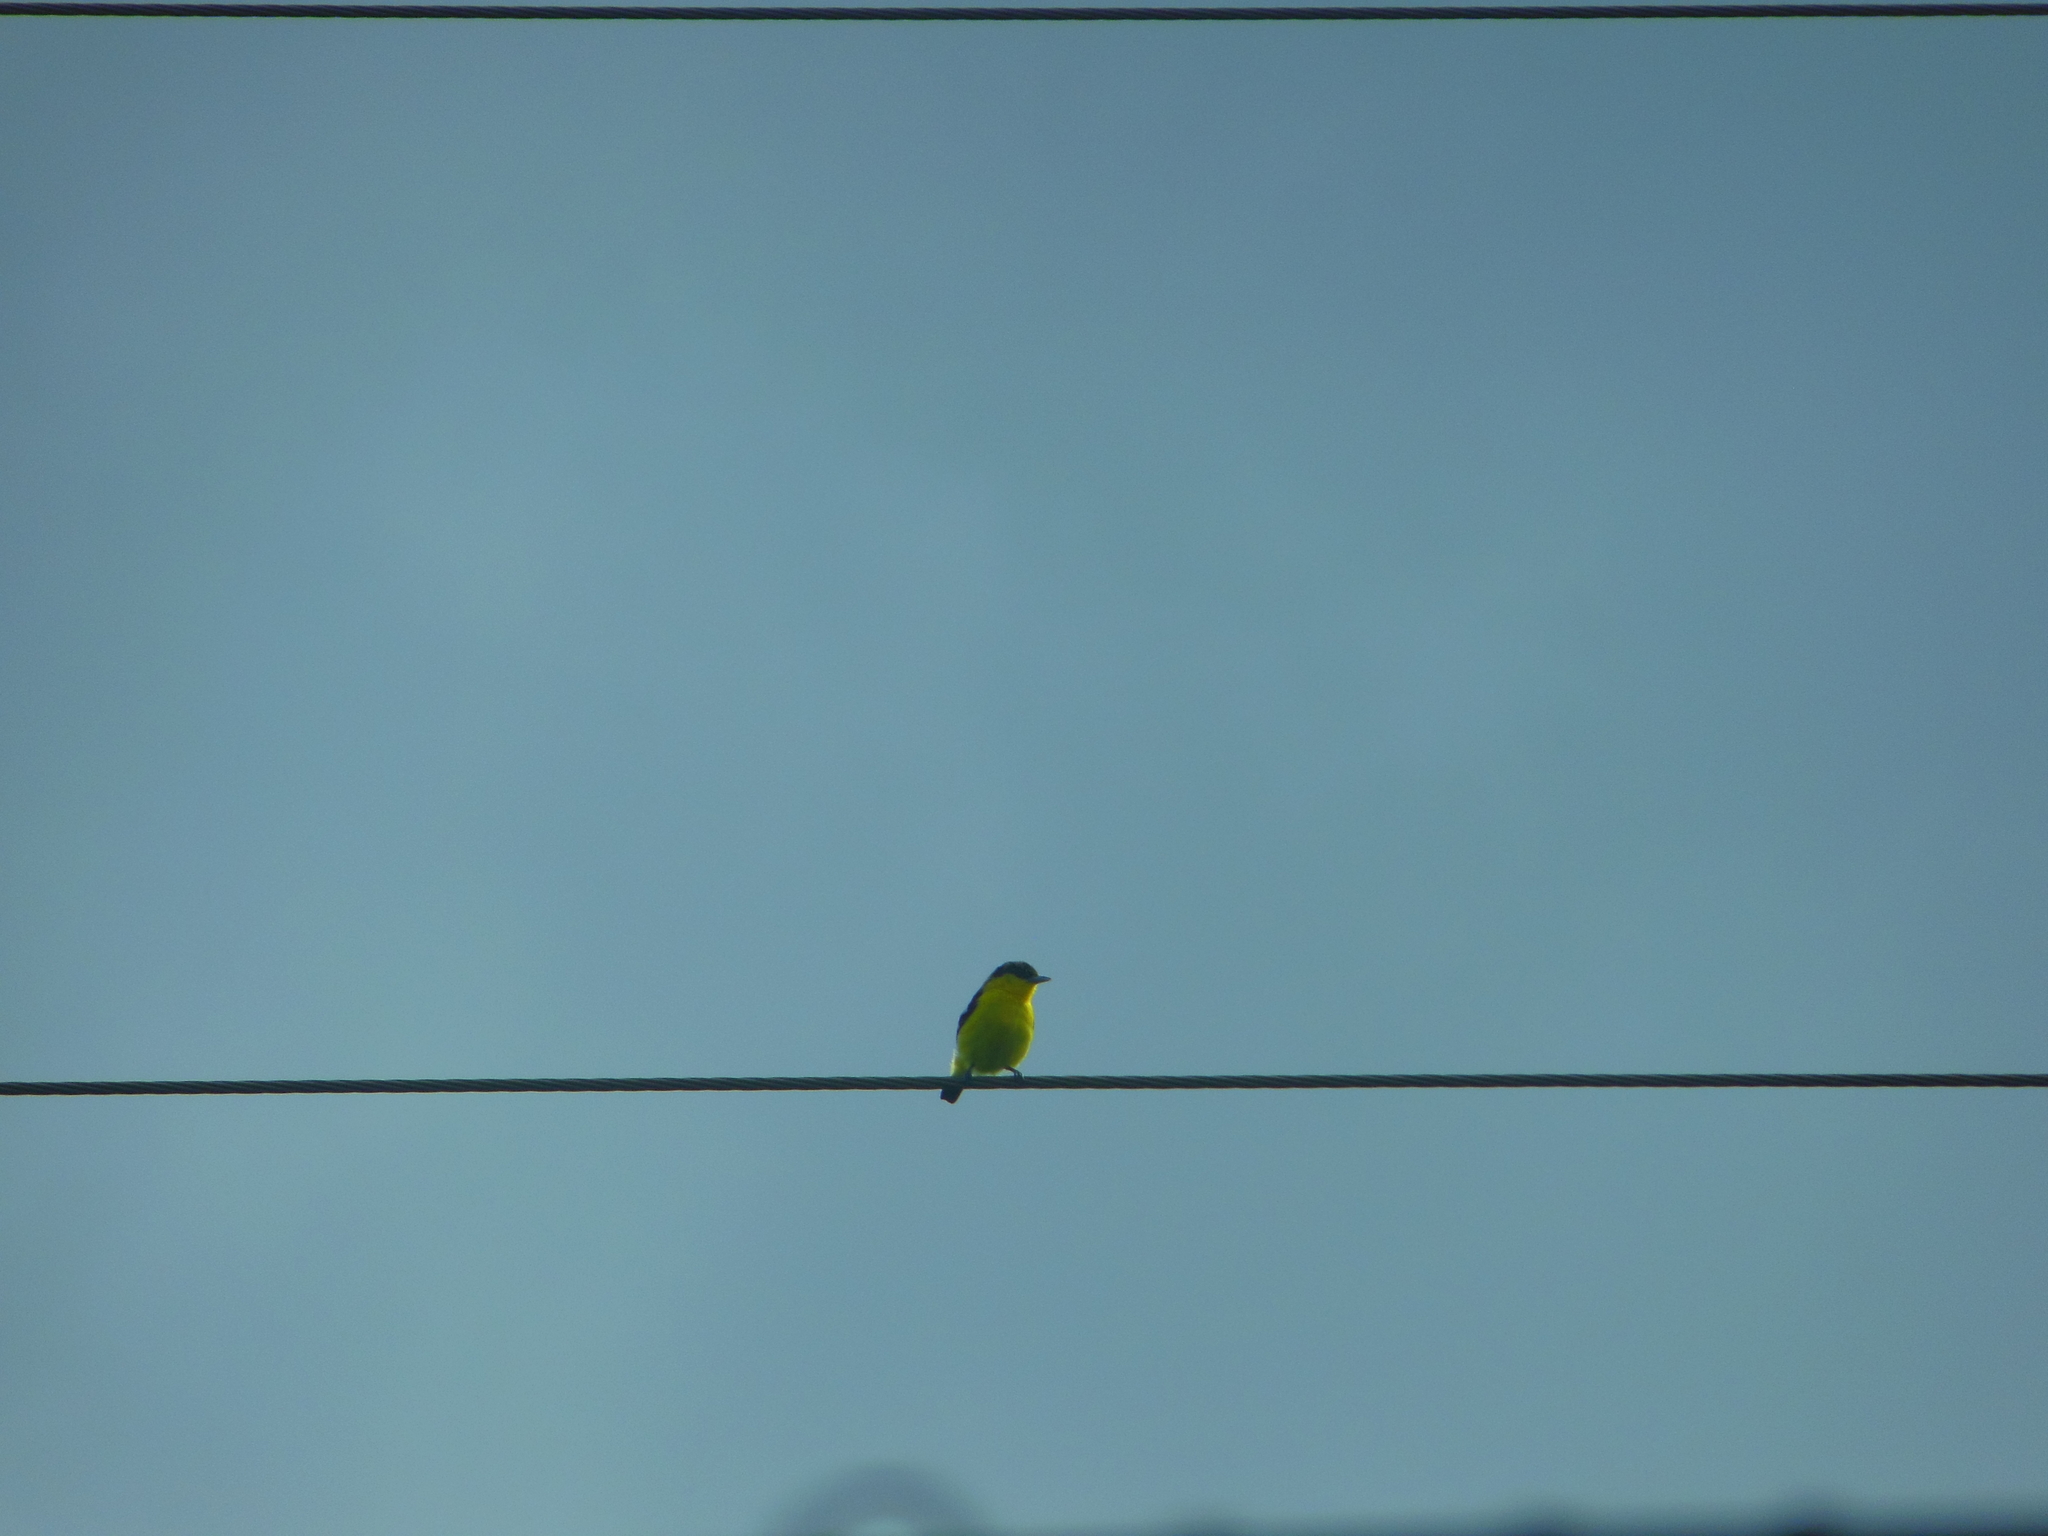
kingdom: Animalia
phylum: Chordata
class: Aves
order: Passeriformes
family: Aegithinidae
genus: Aegithina
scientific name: Aegithina tiphia
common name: Common iora
